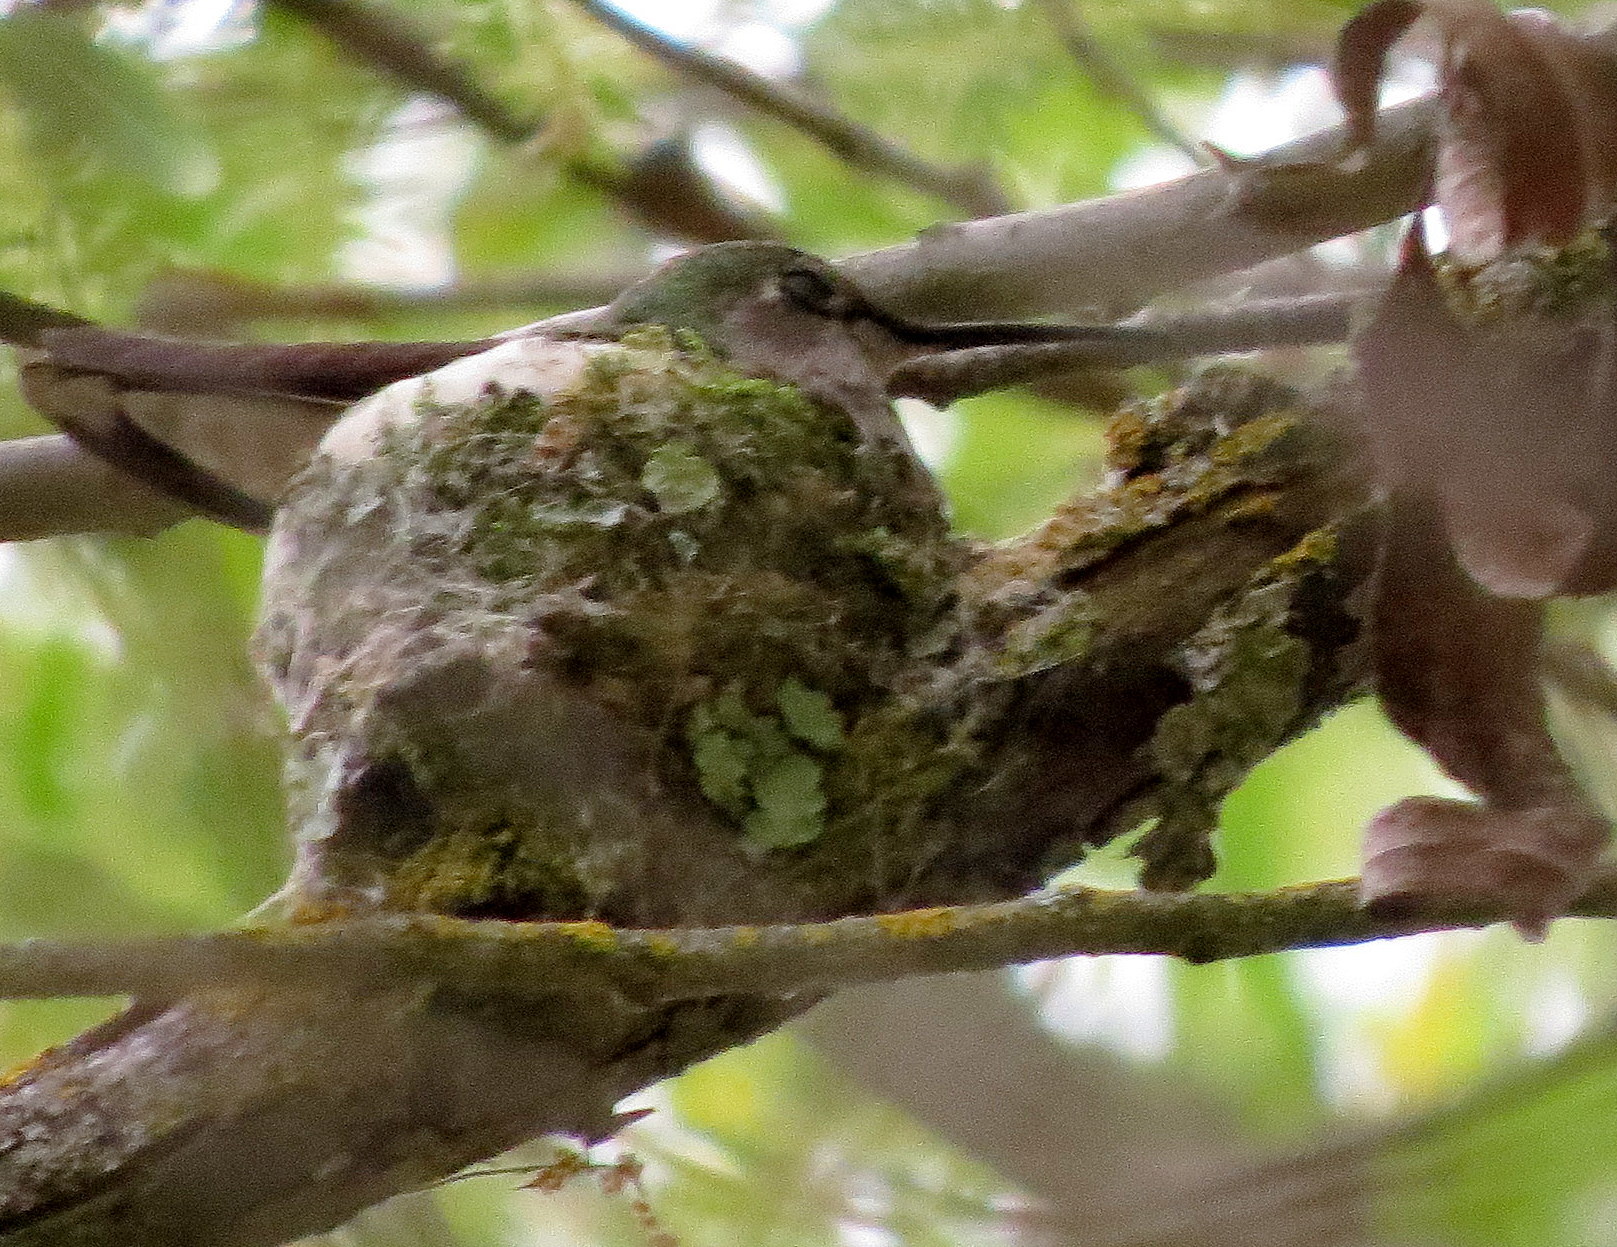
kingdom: Animalia
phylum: Chordata
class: Aves
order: Apodiformes
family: Trochilidae
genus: Calypte
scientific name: Calypte anna
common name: Anna's hummingbird
